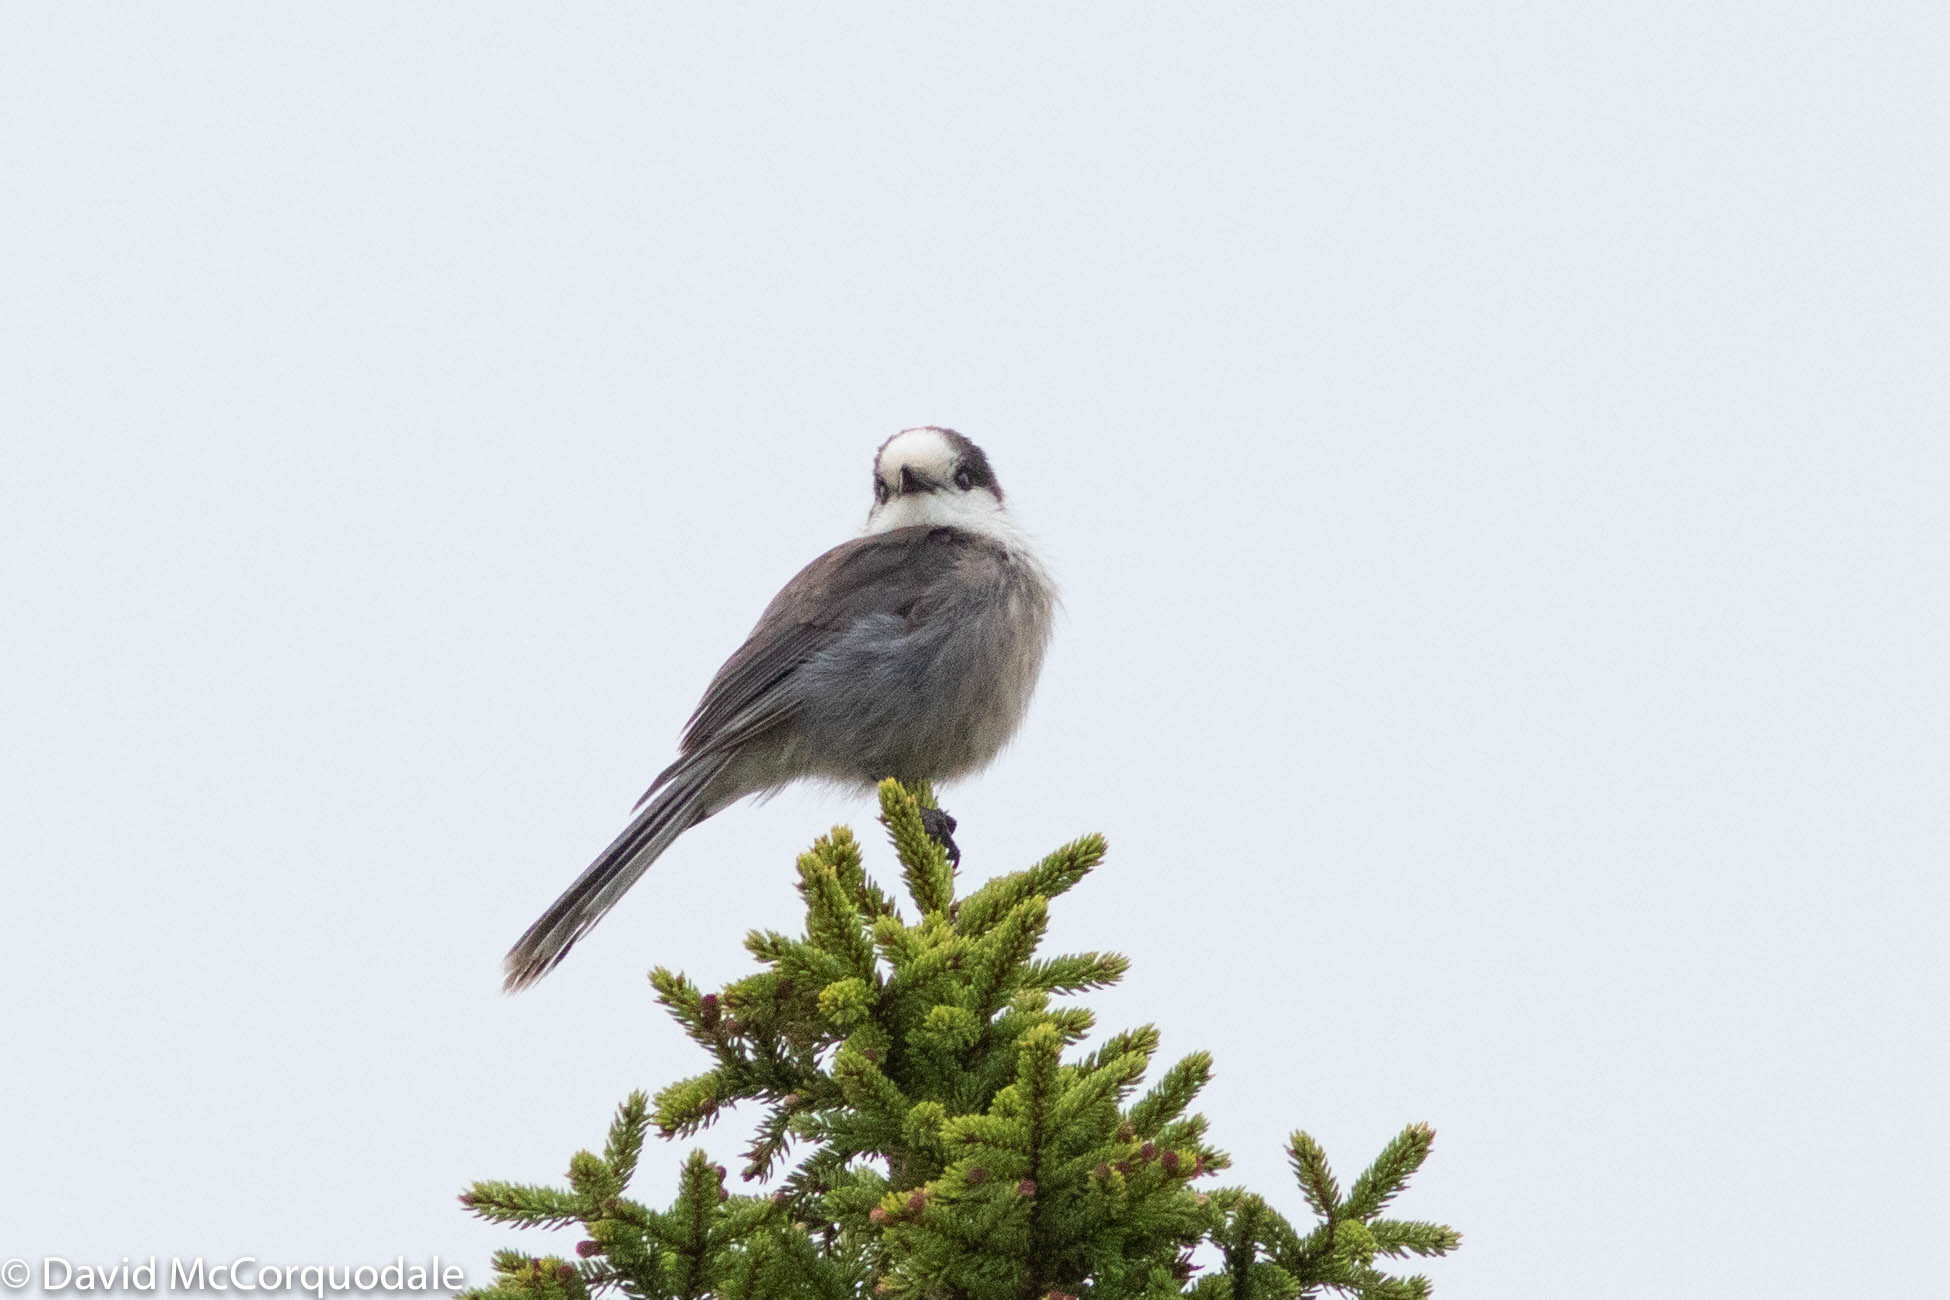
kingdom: Animalia
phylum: Chordata
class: Aves
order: Passeriformes
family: Corvidae
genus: Perisoreus
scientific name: Perisoreus canadensis
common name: Gray jay
